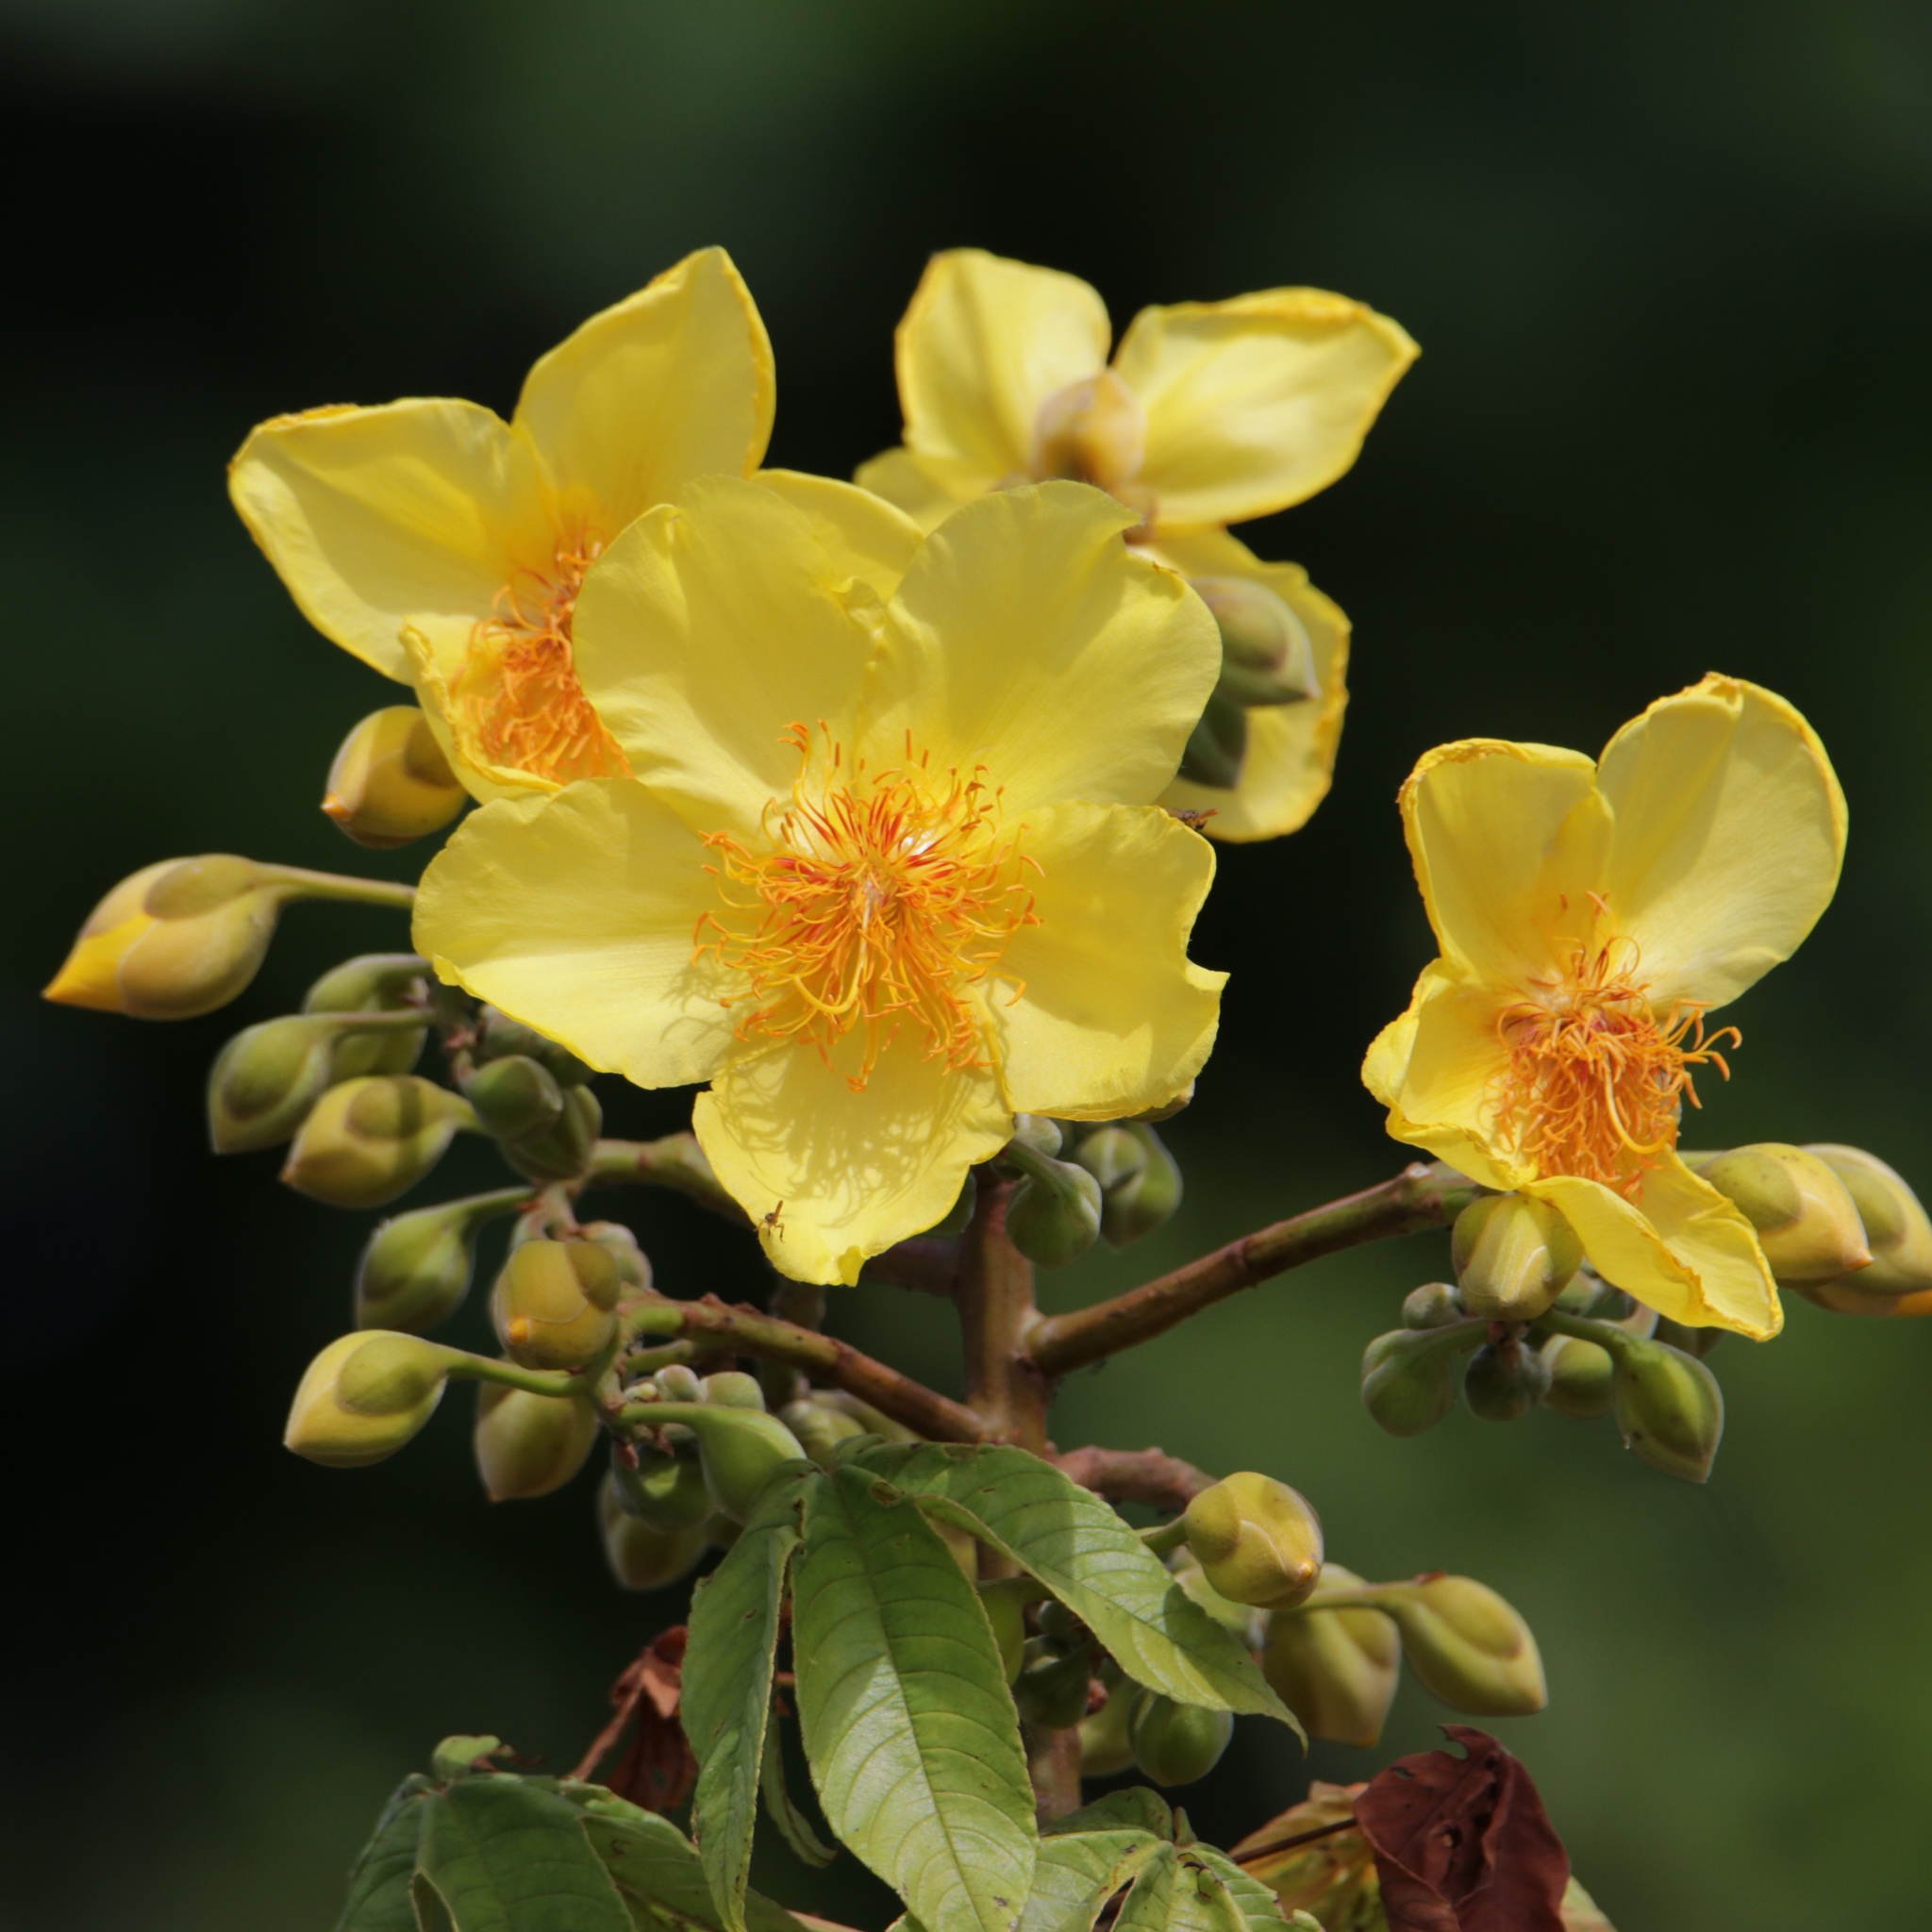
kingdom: Plantae
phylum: Tracheophyta
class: Magnoliopsida
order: Malvales
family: Cochlospermaceae
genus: Cochlospermum
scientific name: Cochlospermum vitifolium
